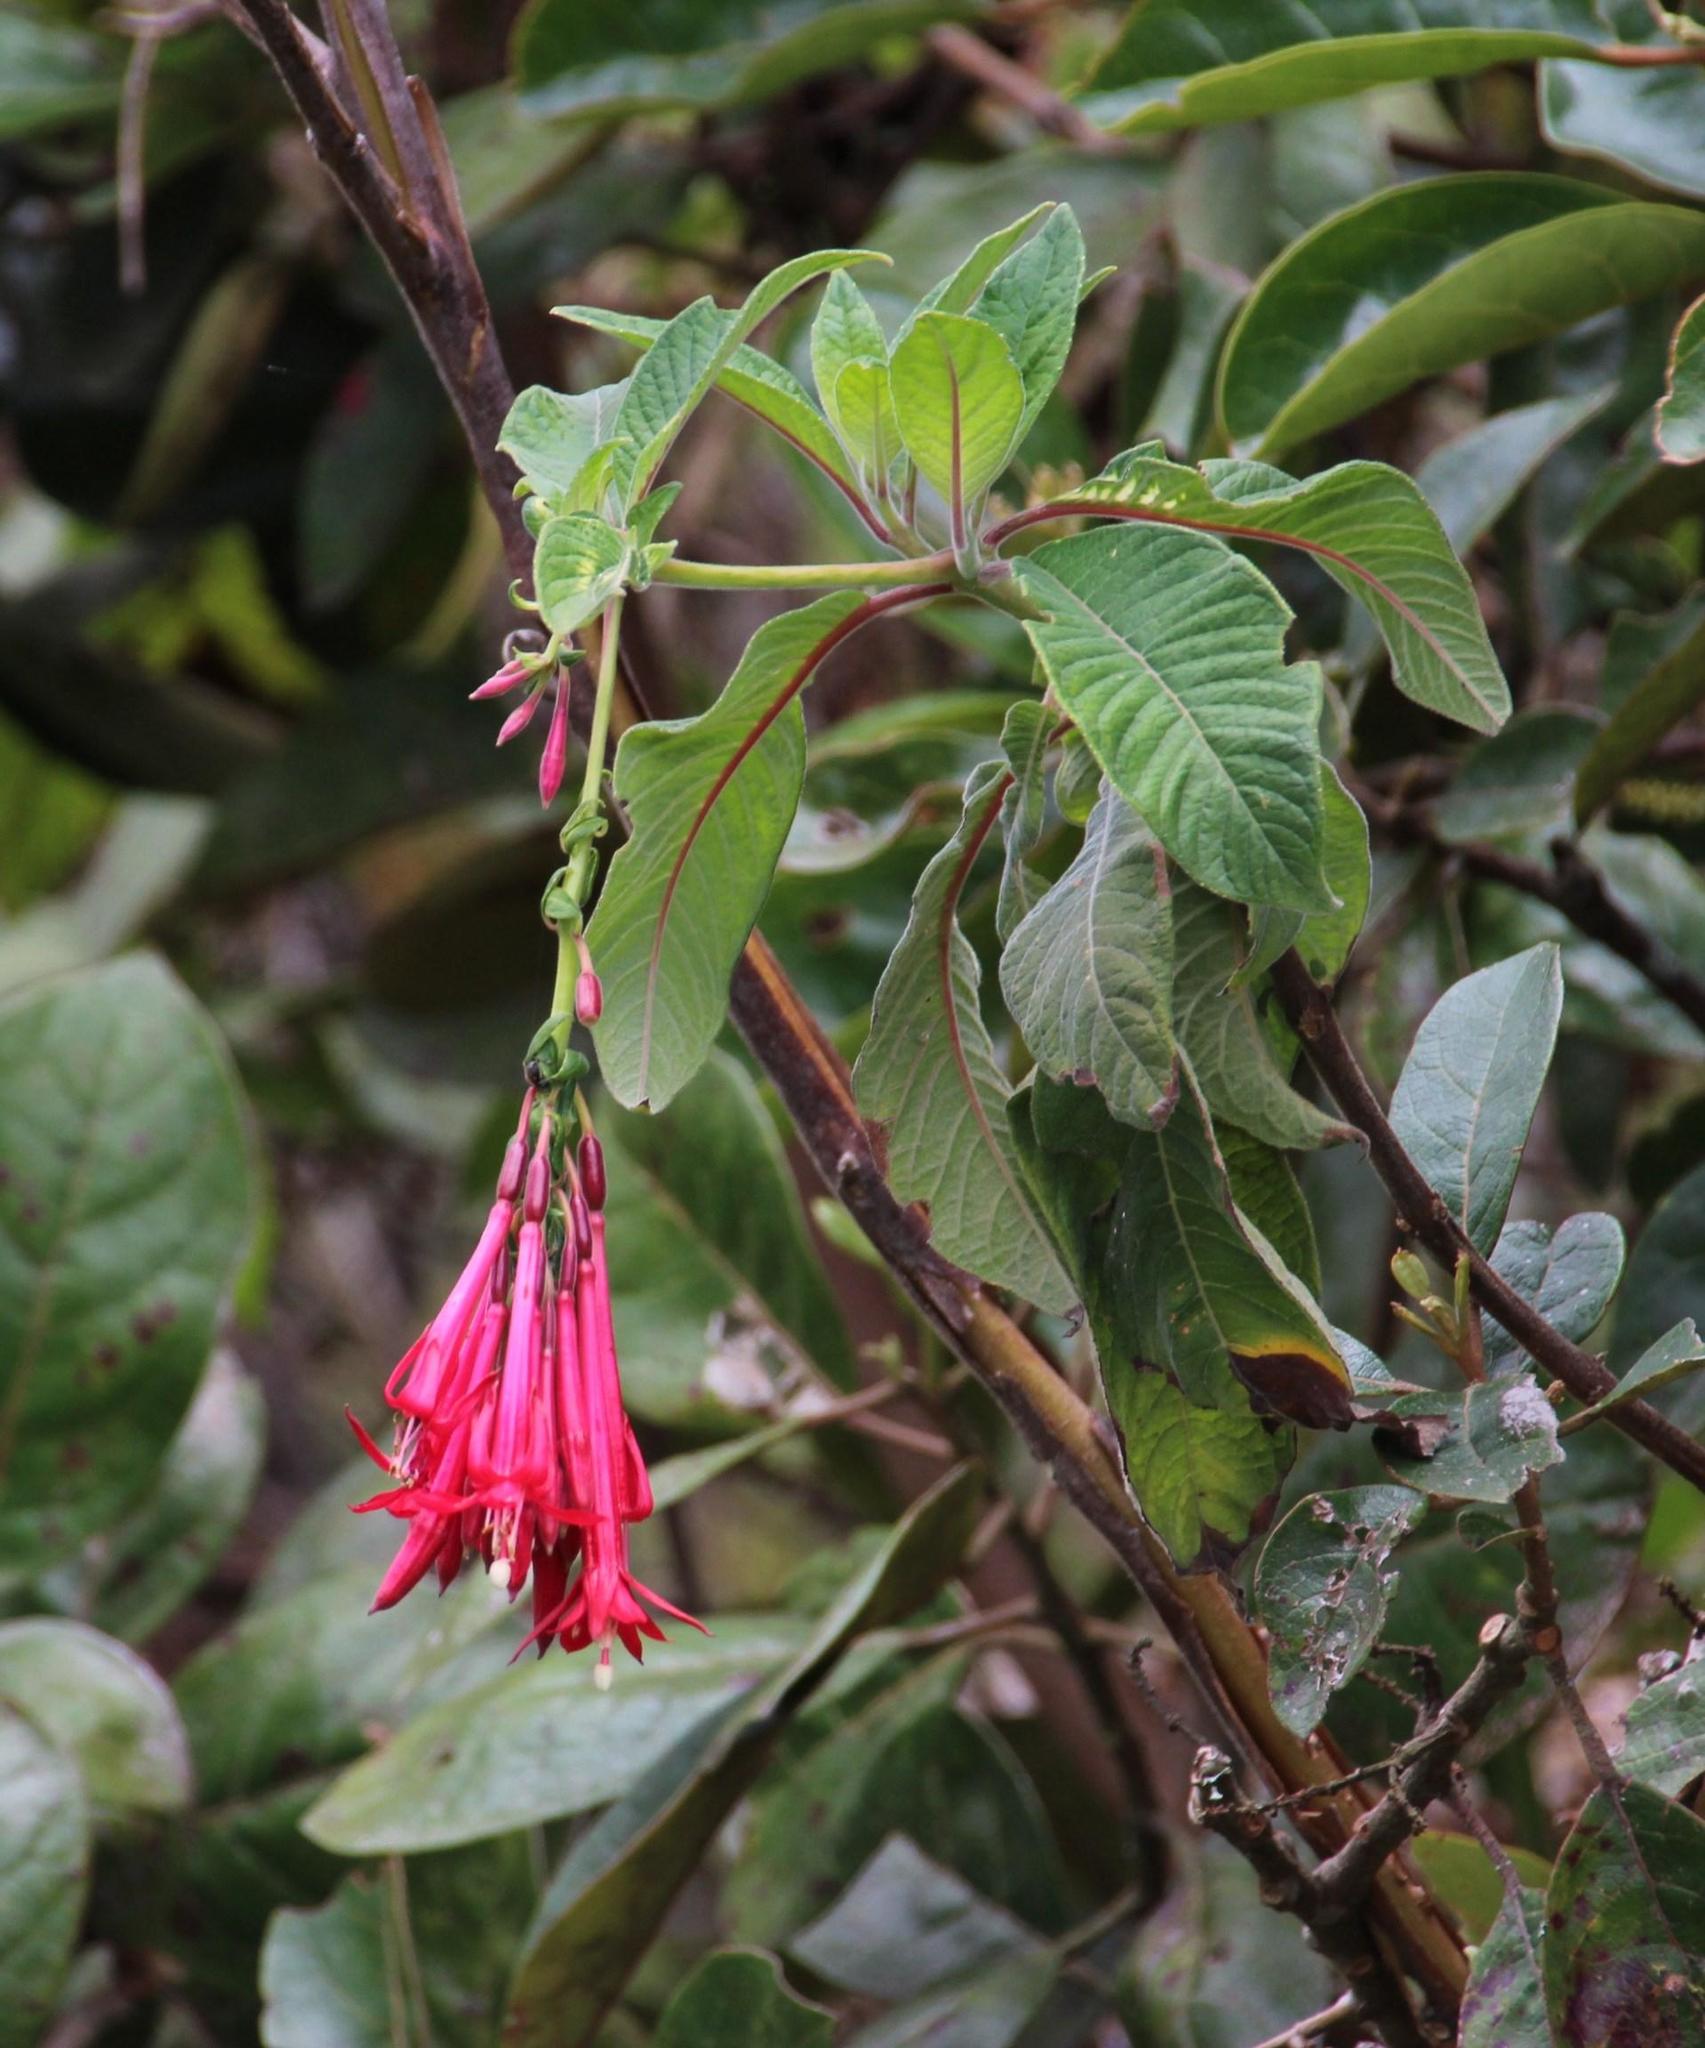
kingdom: Plantae
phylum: Tracheophyta
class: Magnoliopsida
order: Myrtales
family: Onagraceae
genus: Fuchsia
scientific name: Fuchsia boliviana
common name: Bolivian fuchsia
